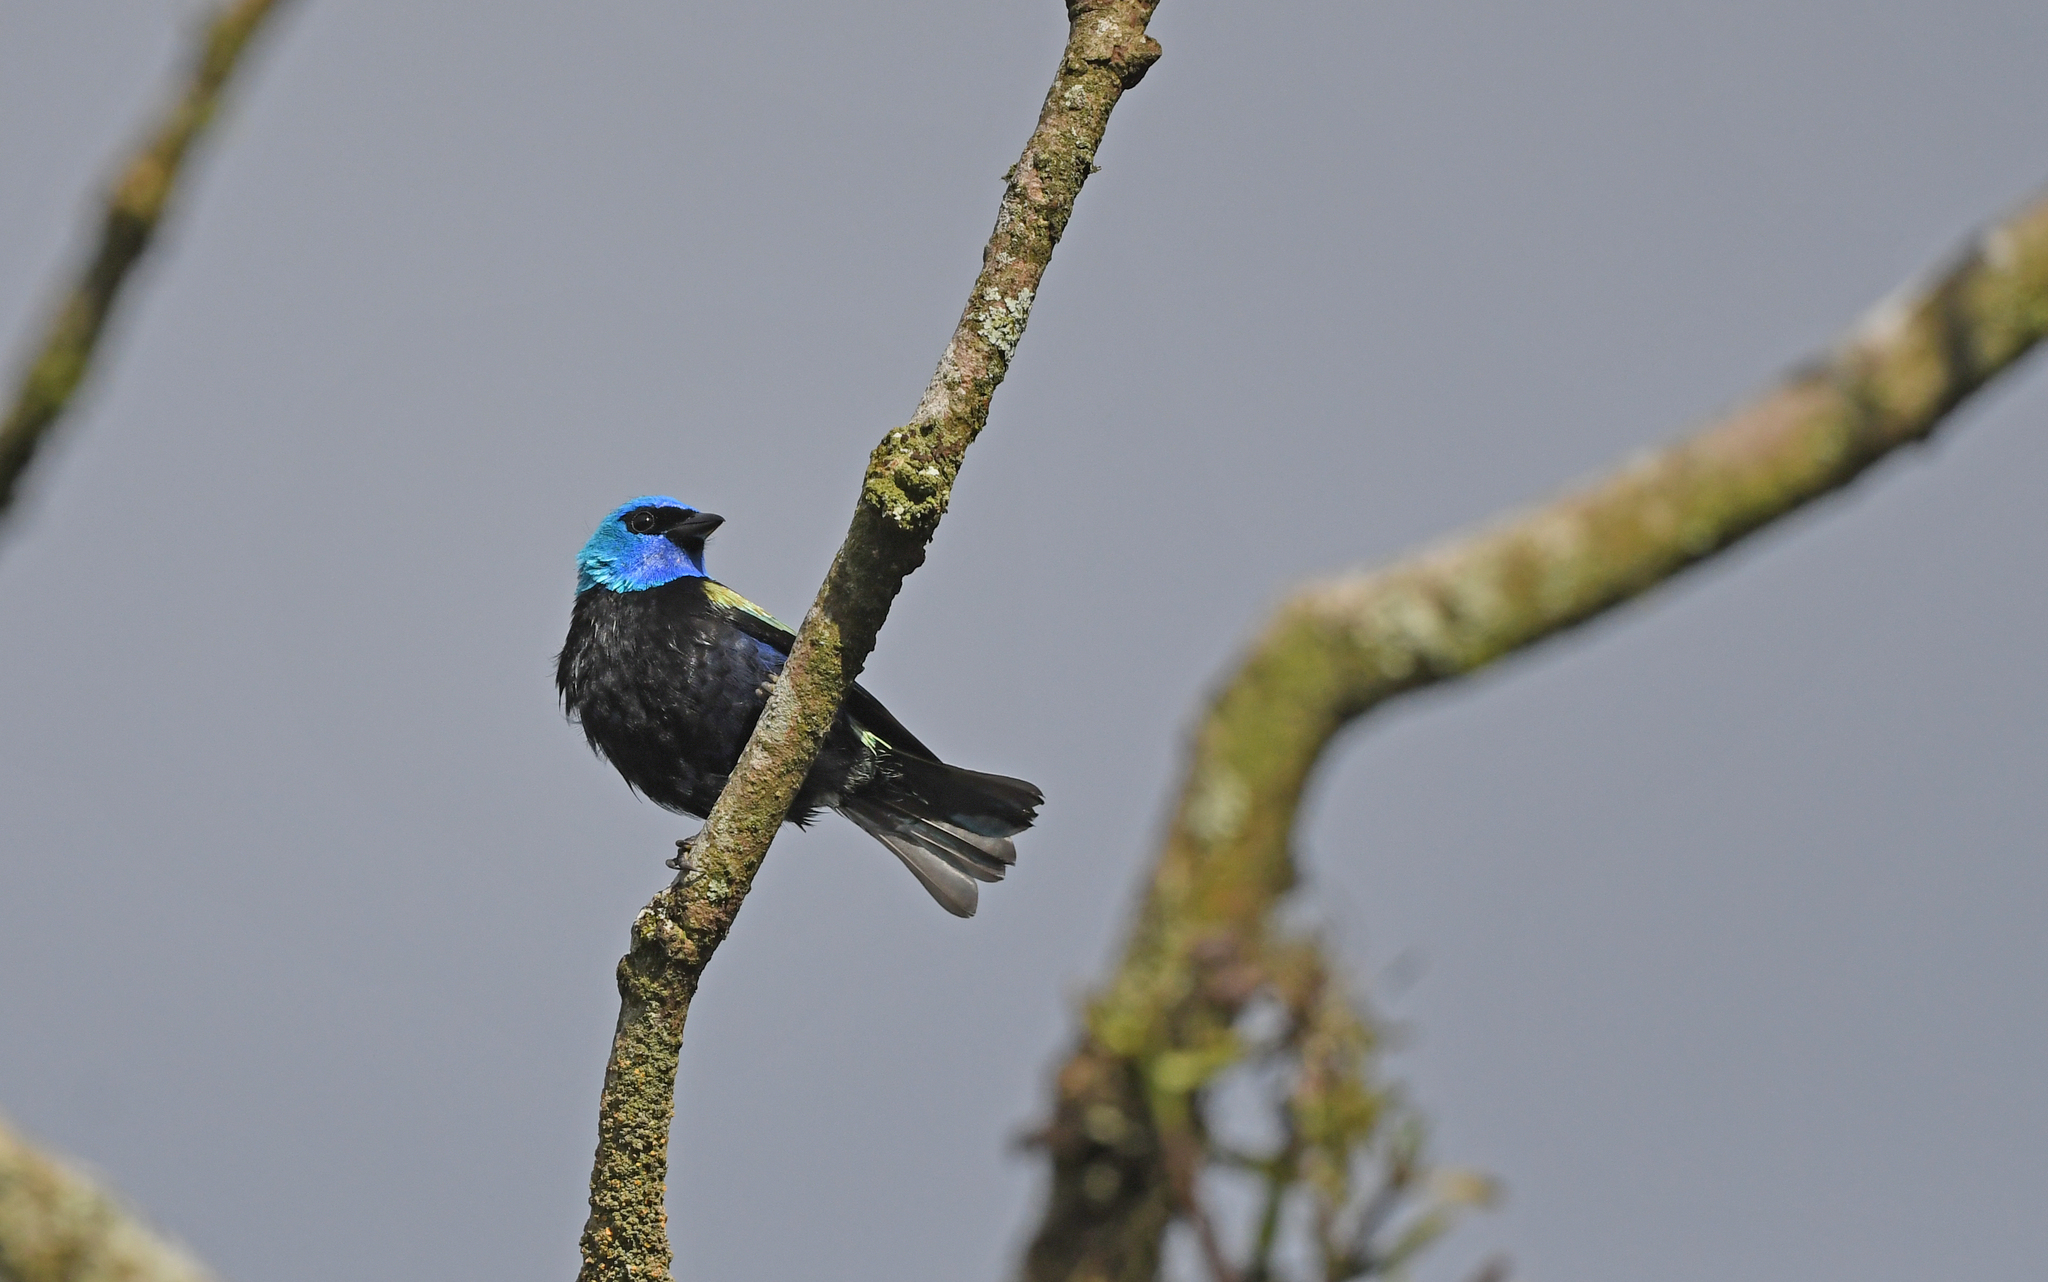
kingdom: Animalia
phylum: Chordata
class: Aves
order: Passeriformes
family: Thraupidae
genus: Stilpnia
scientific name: Stilpnia cyanicollis
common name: Blue-necked tanager
